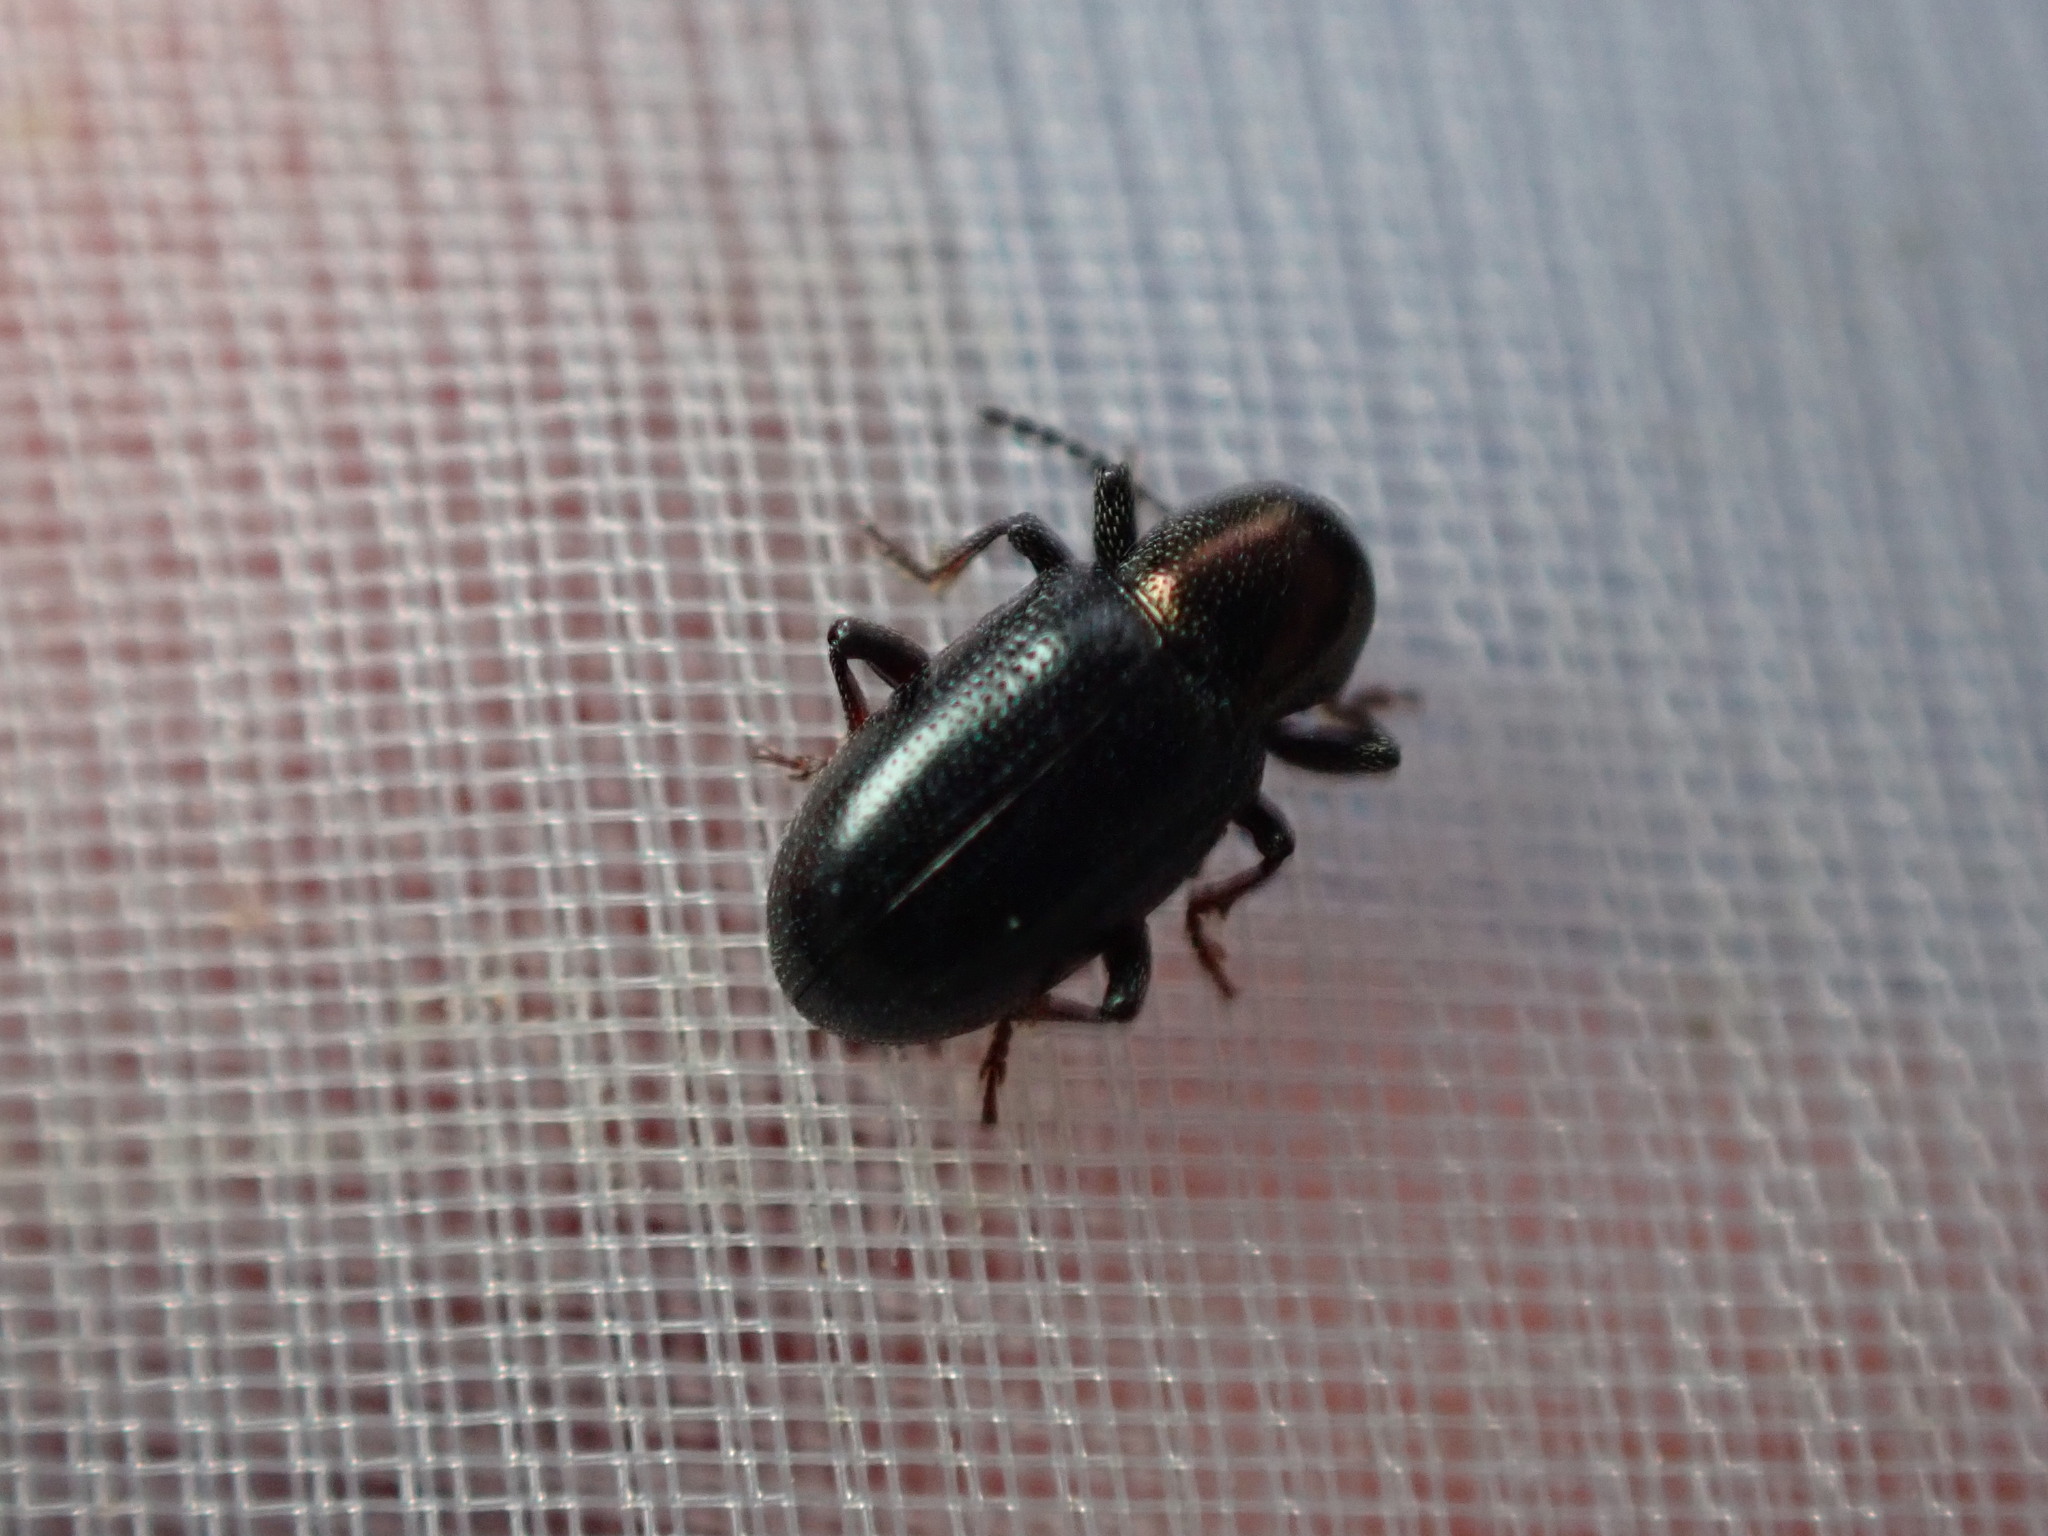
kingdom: Animalia
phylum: Arthropoda
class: Insecta
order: Coleoptera
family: Chrysomelidae
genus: Crepidodera
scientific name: Crepidodera aurata
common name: Willow flea beetle
